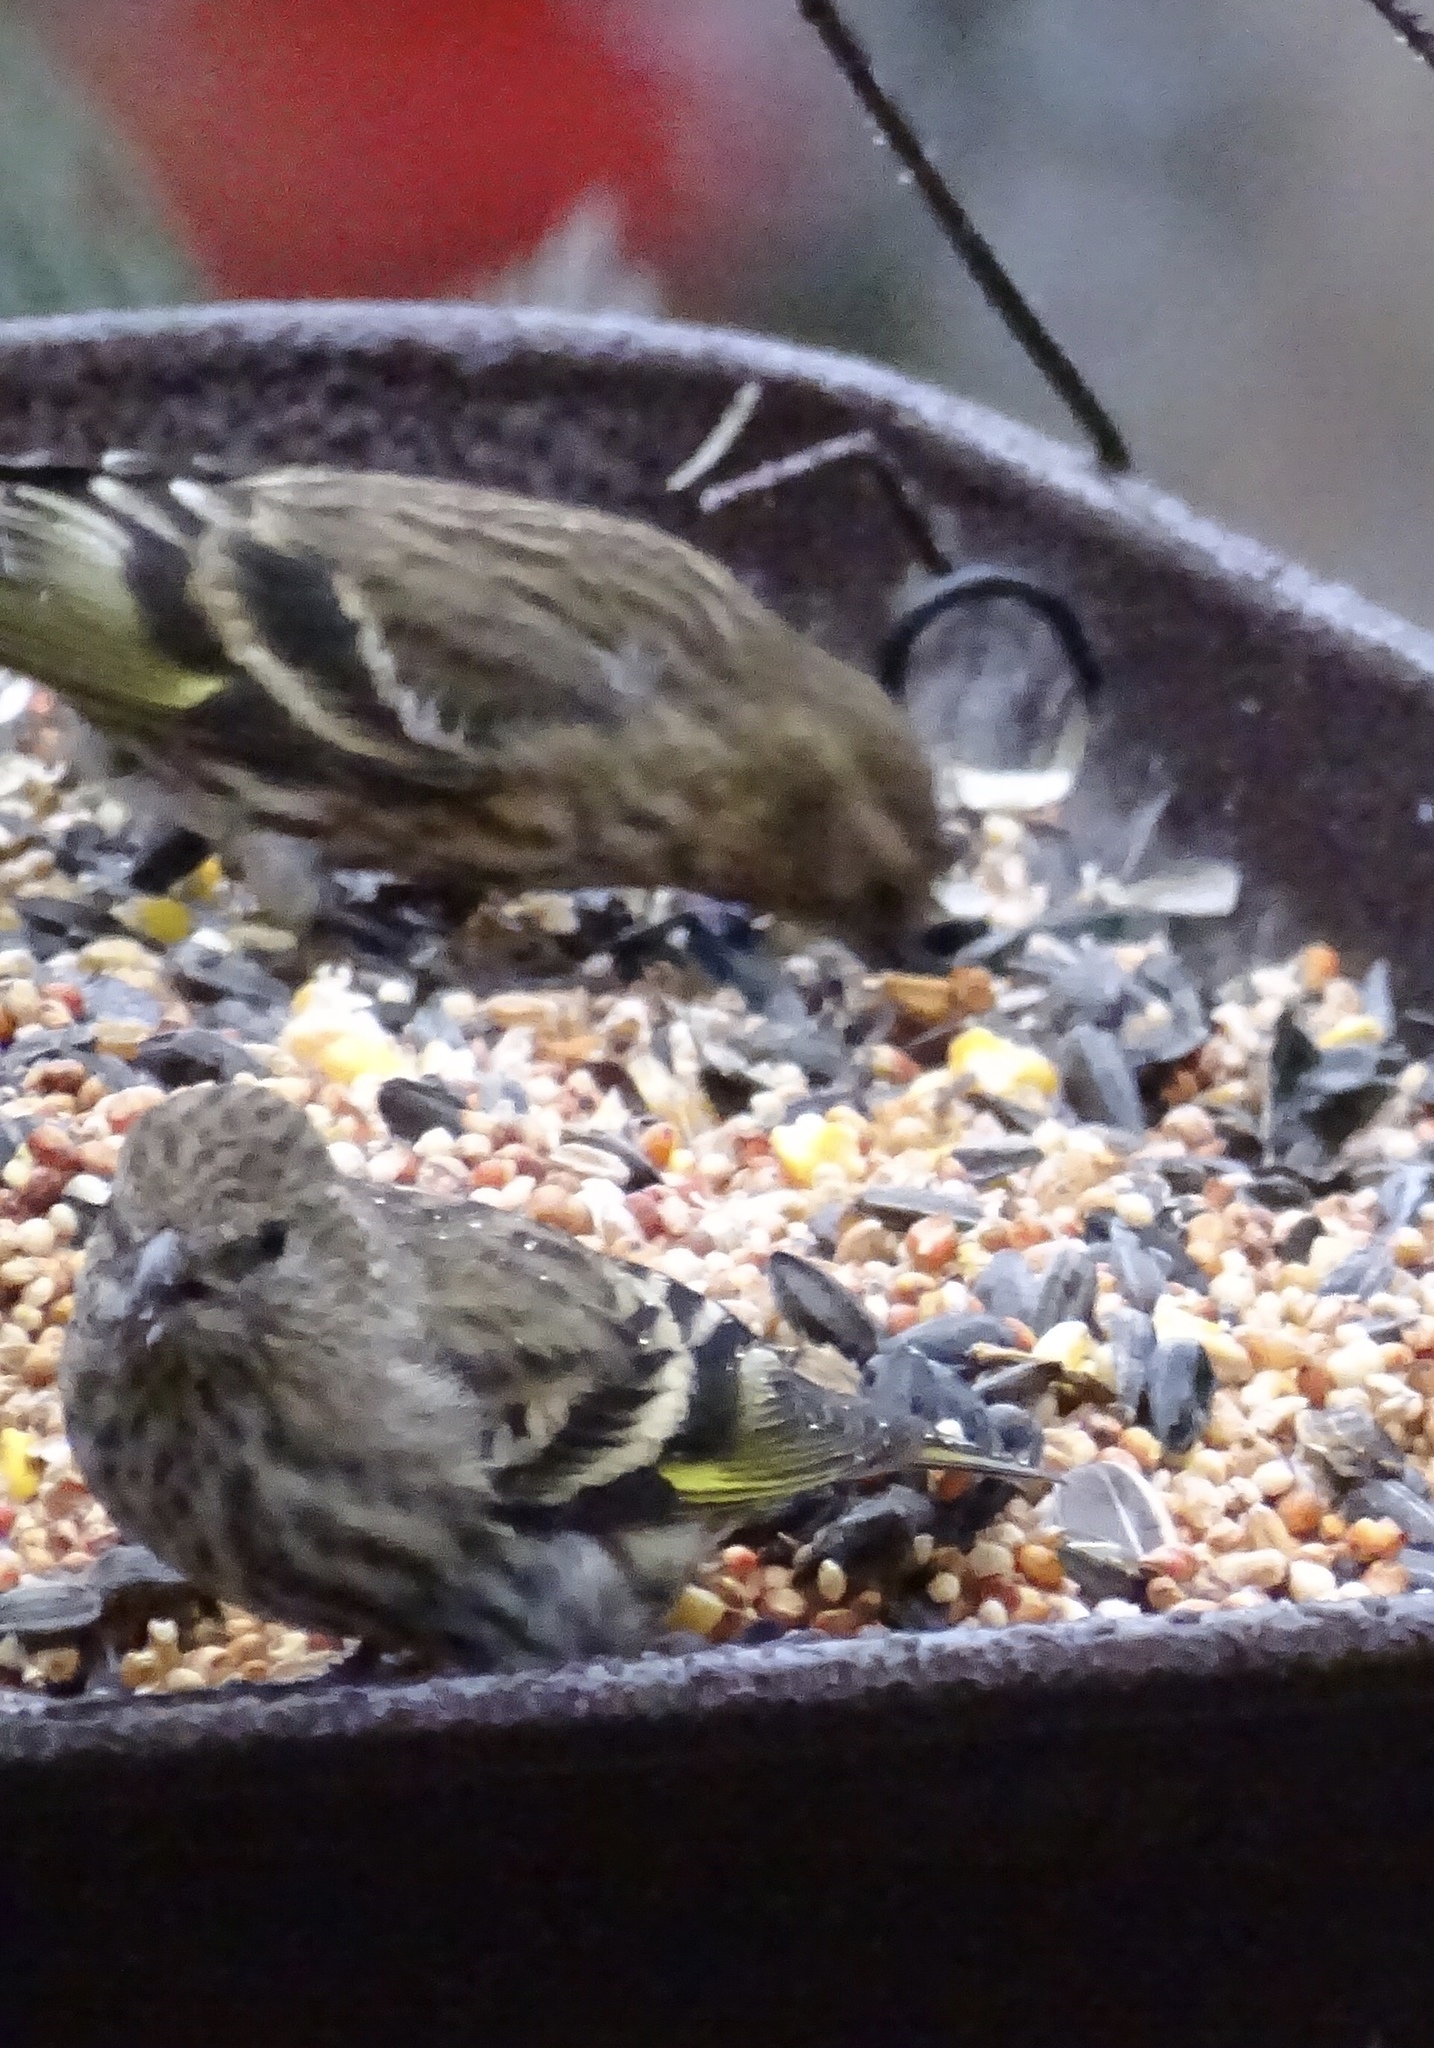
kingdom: Animalia
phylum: Chordata
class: Aves
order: Passeriformes
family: Fringillidae
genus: Spinus
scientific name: Spinus pinus
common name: Pine siskin
